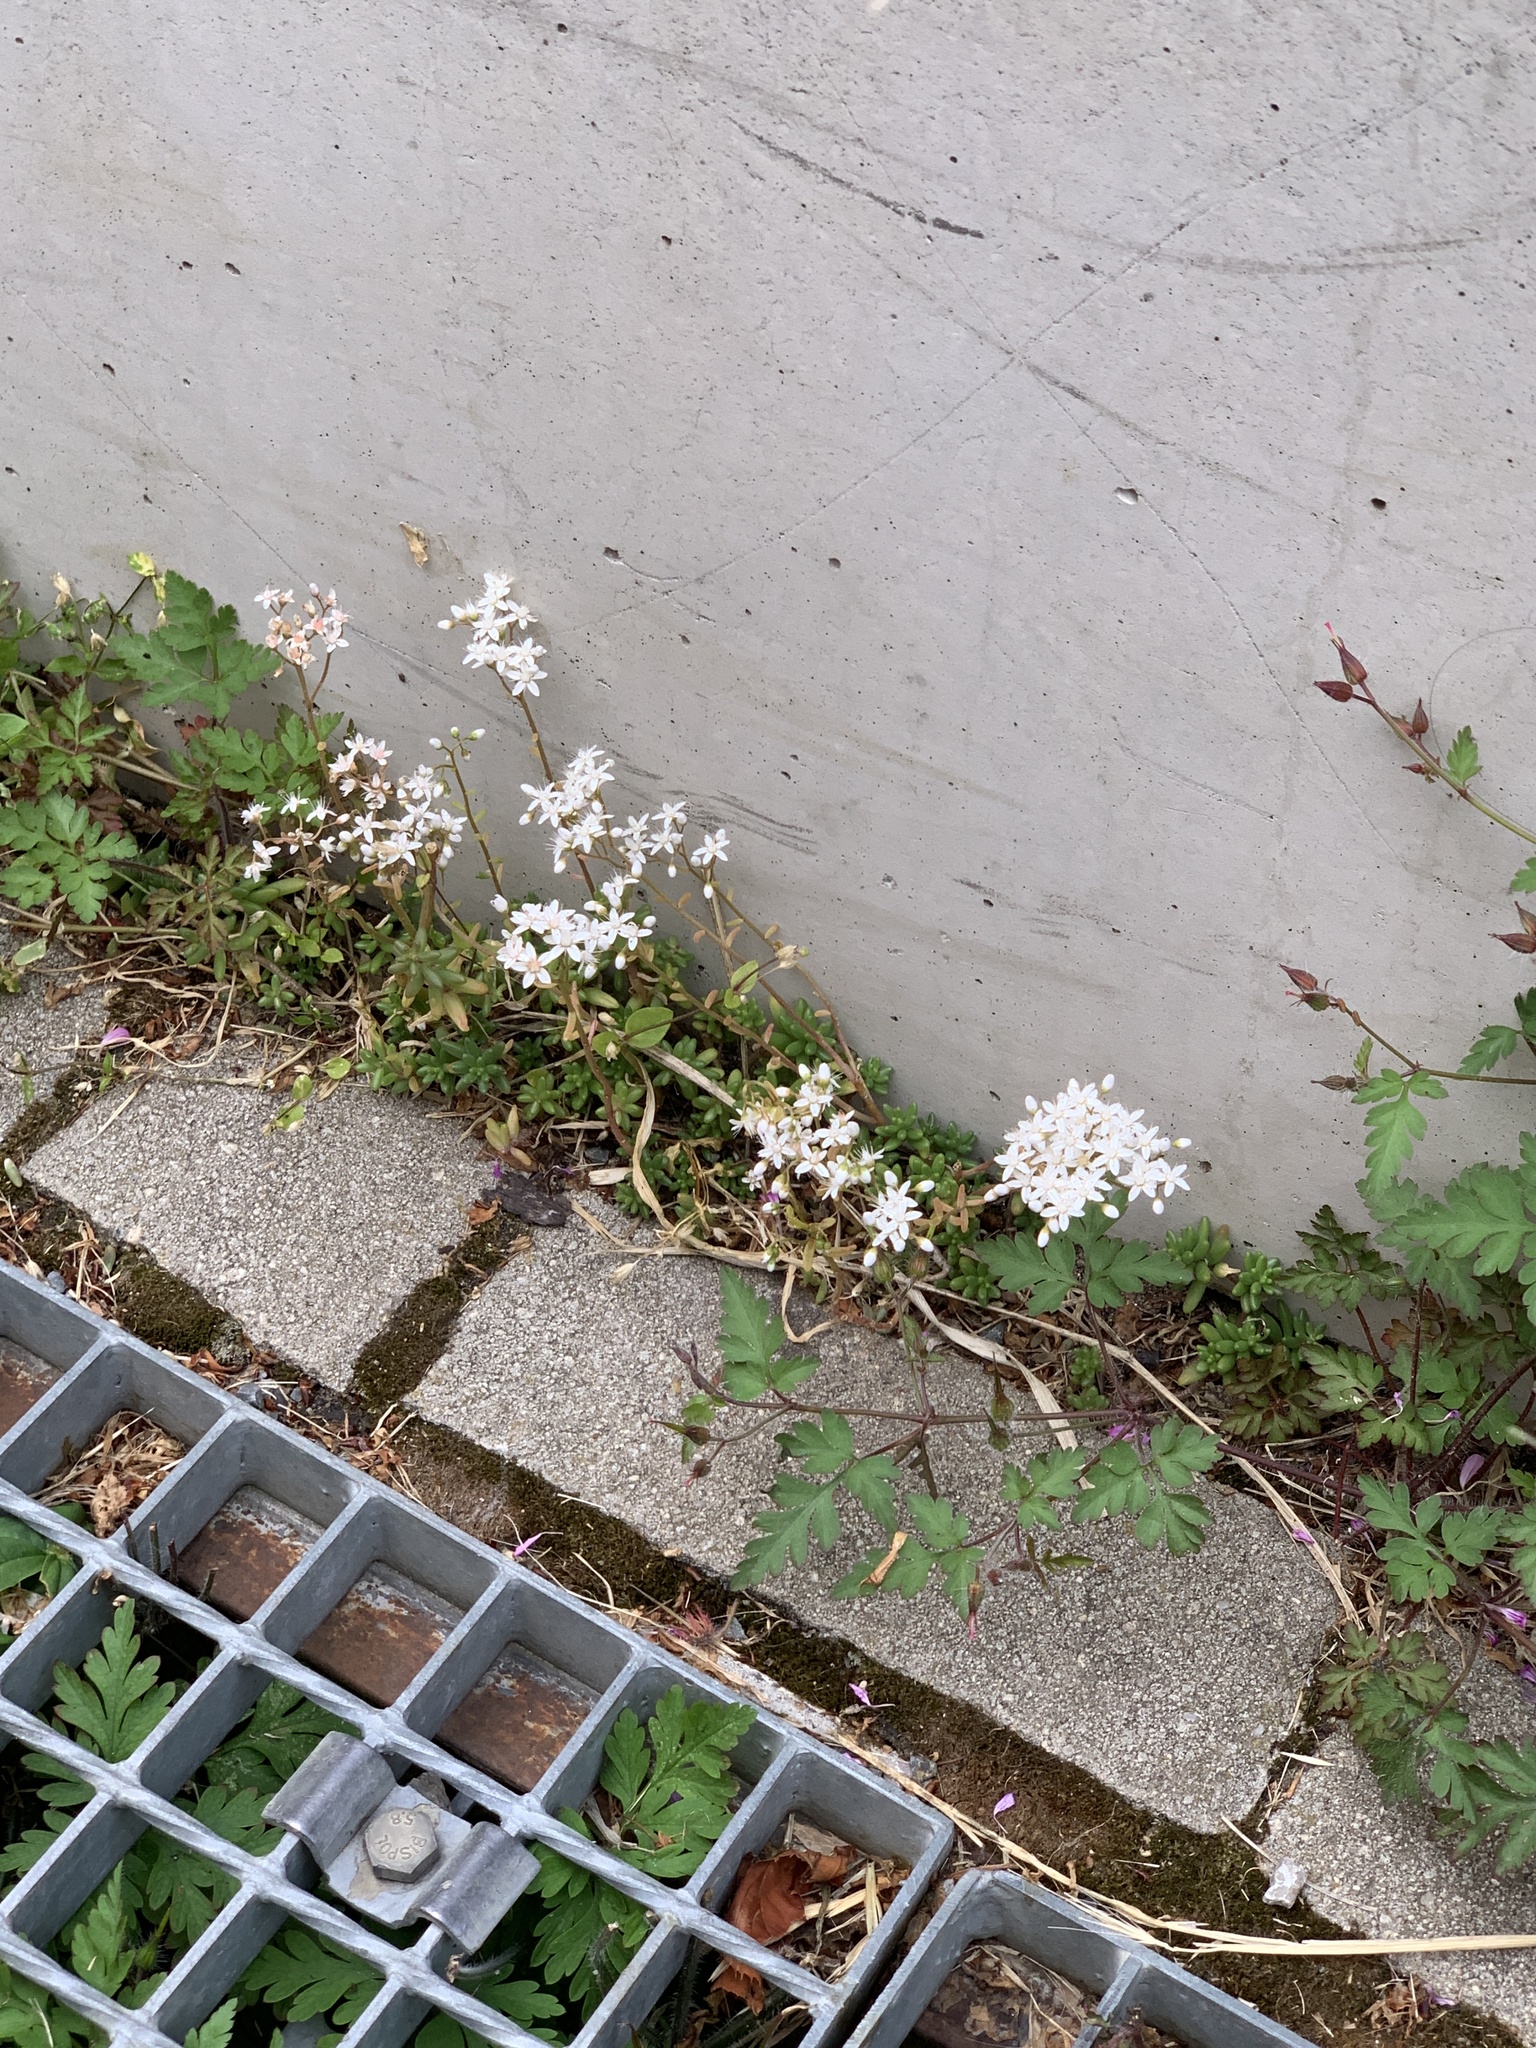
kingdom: Plantae
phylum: Tracheophyta
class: Magnoliopsida
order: Saxifragales
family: Crassulaceae
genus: Sedum
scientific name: Sedum album
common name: White stonecrop
